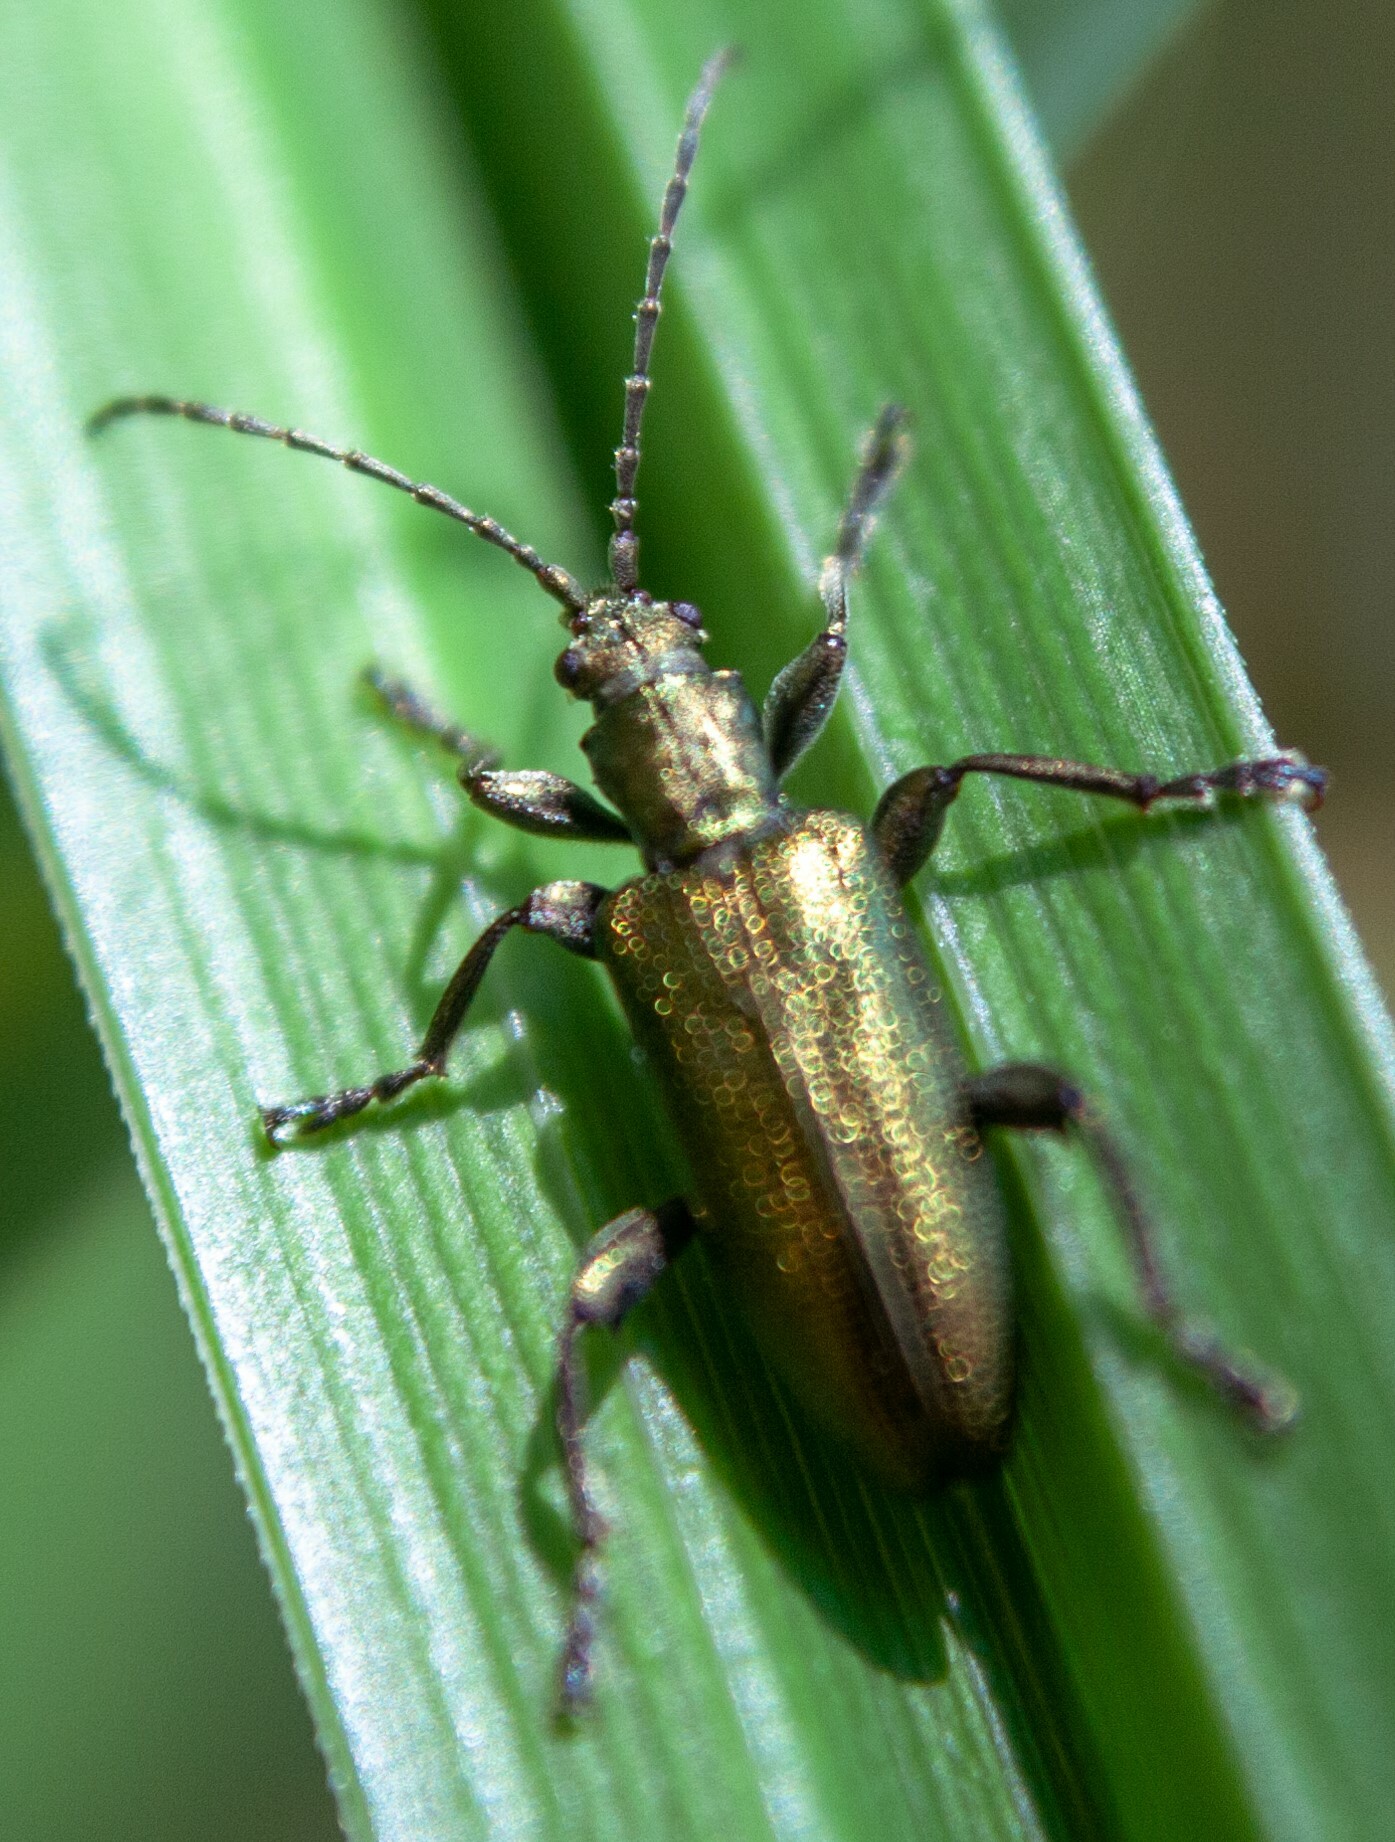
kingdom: Animalia
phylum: Arthropoda
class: Insecta
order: Coleoptera
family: Chrysomelidae
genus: Plateumaris
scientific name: Plateumaris sericea
